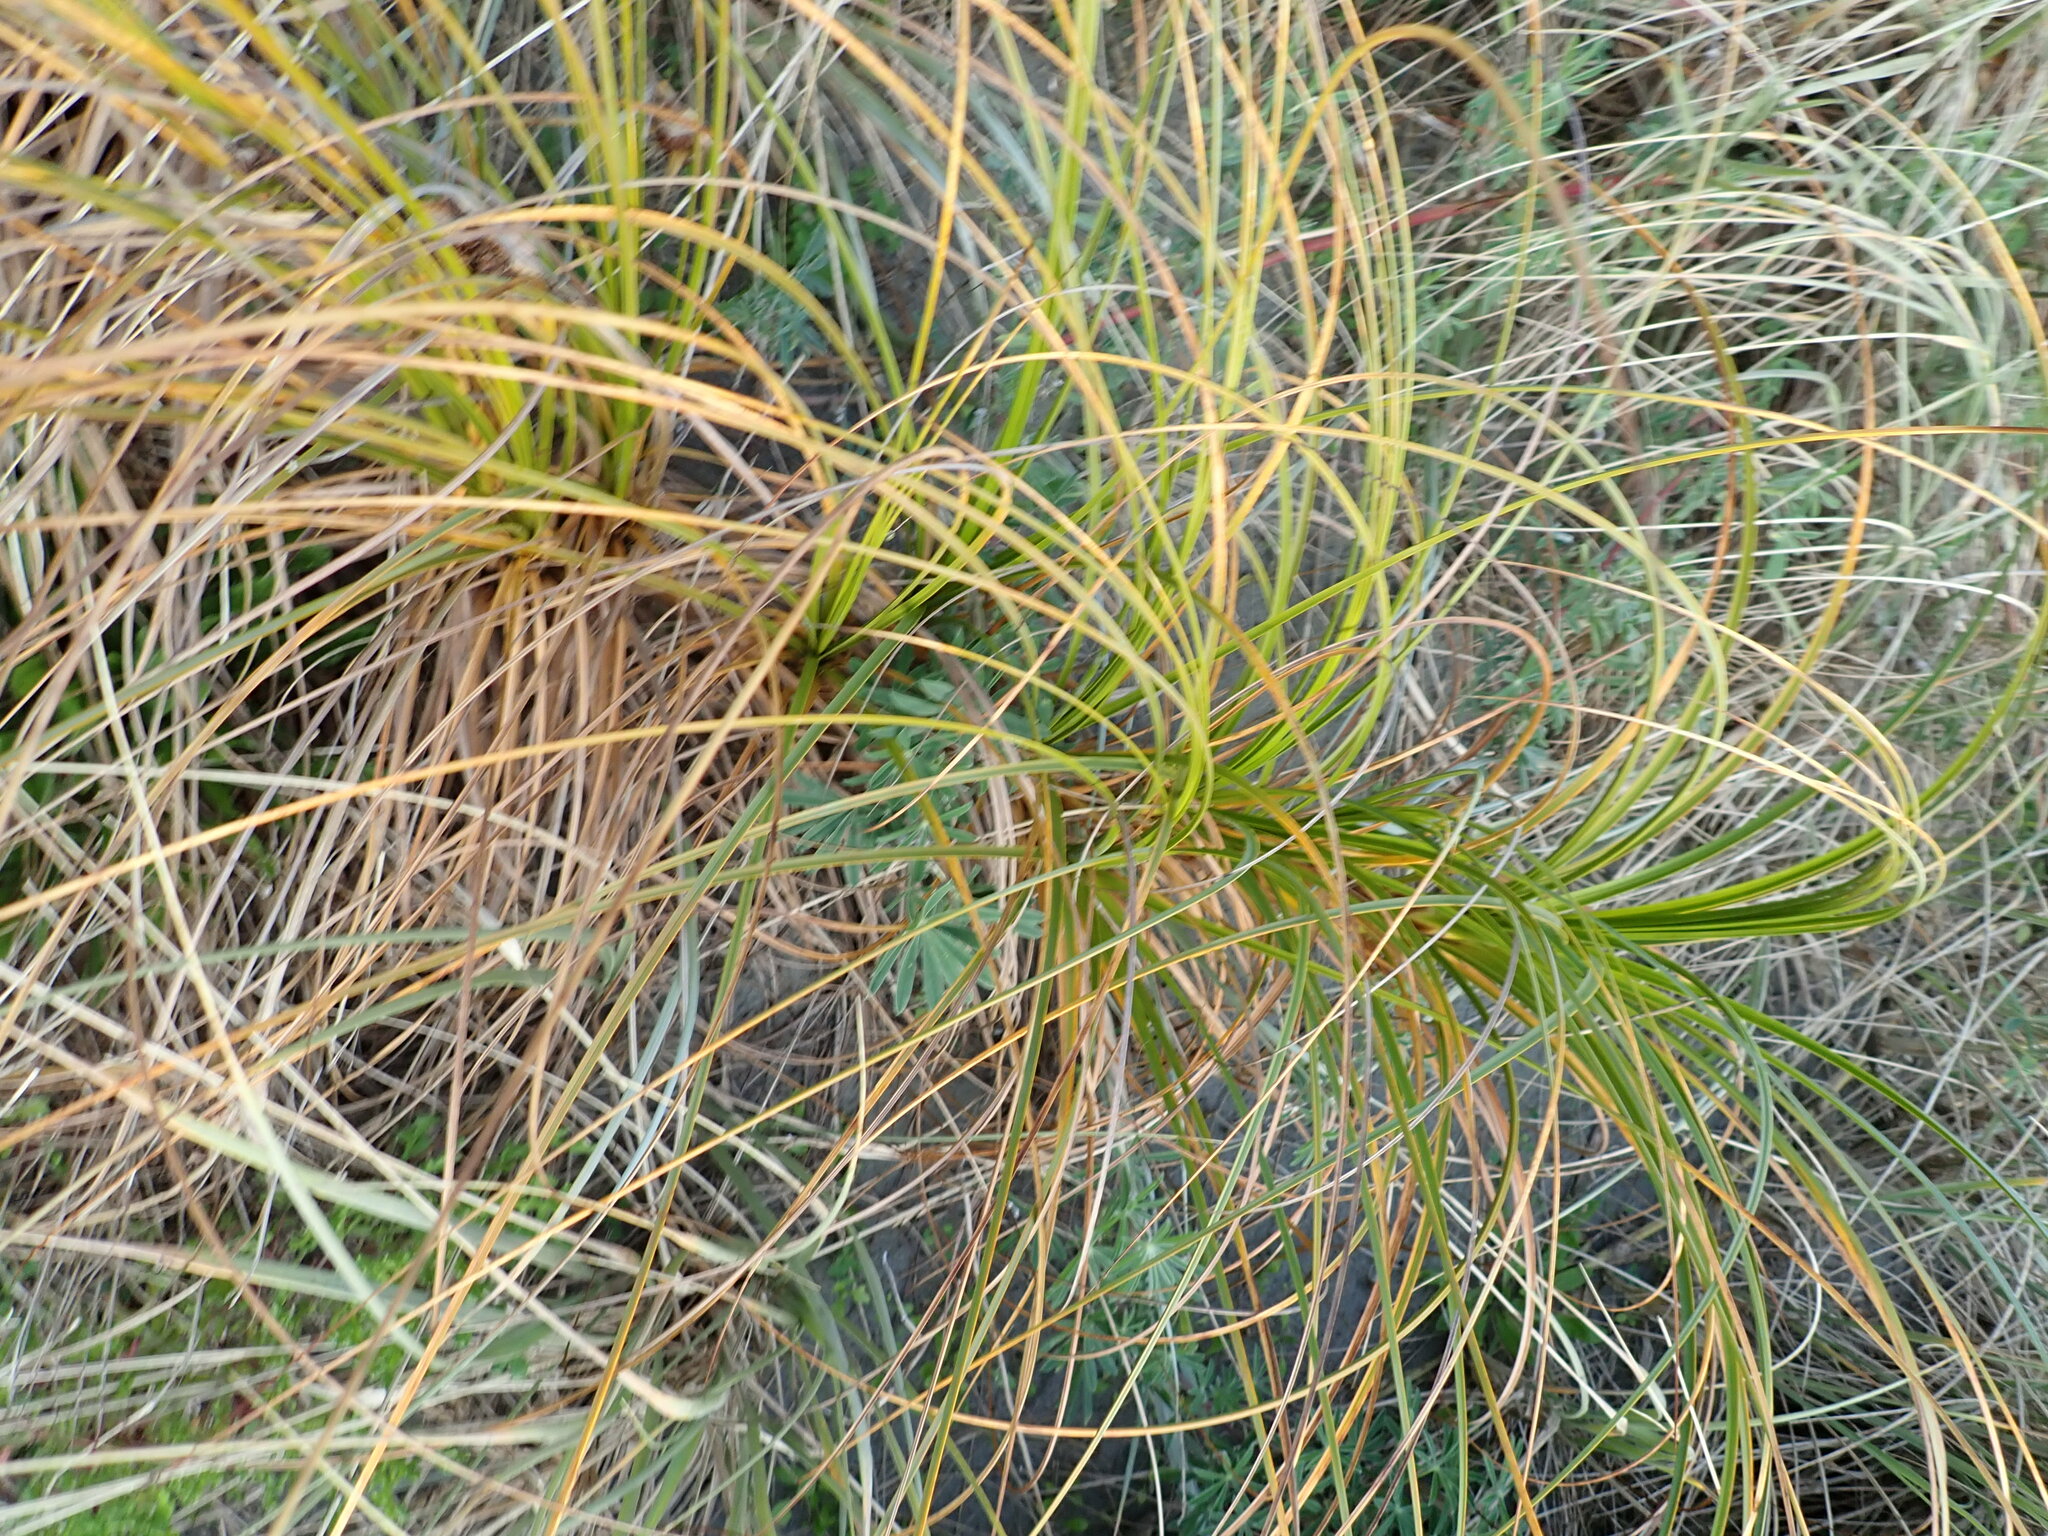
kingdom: Plantae
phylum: Tracheophyta
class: Liliopsida
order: Poales
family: Cyperaceae
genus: Ficinia
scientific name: Ficinia spiralis
